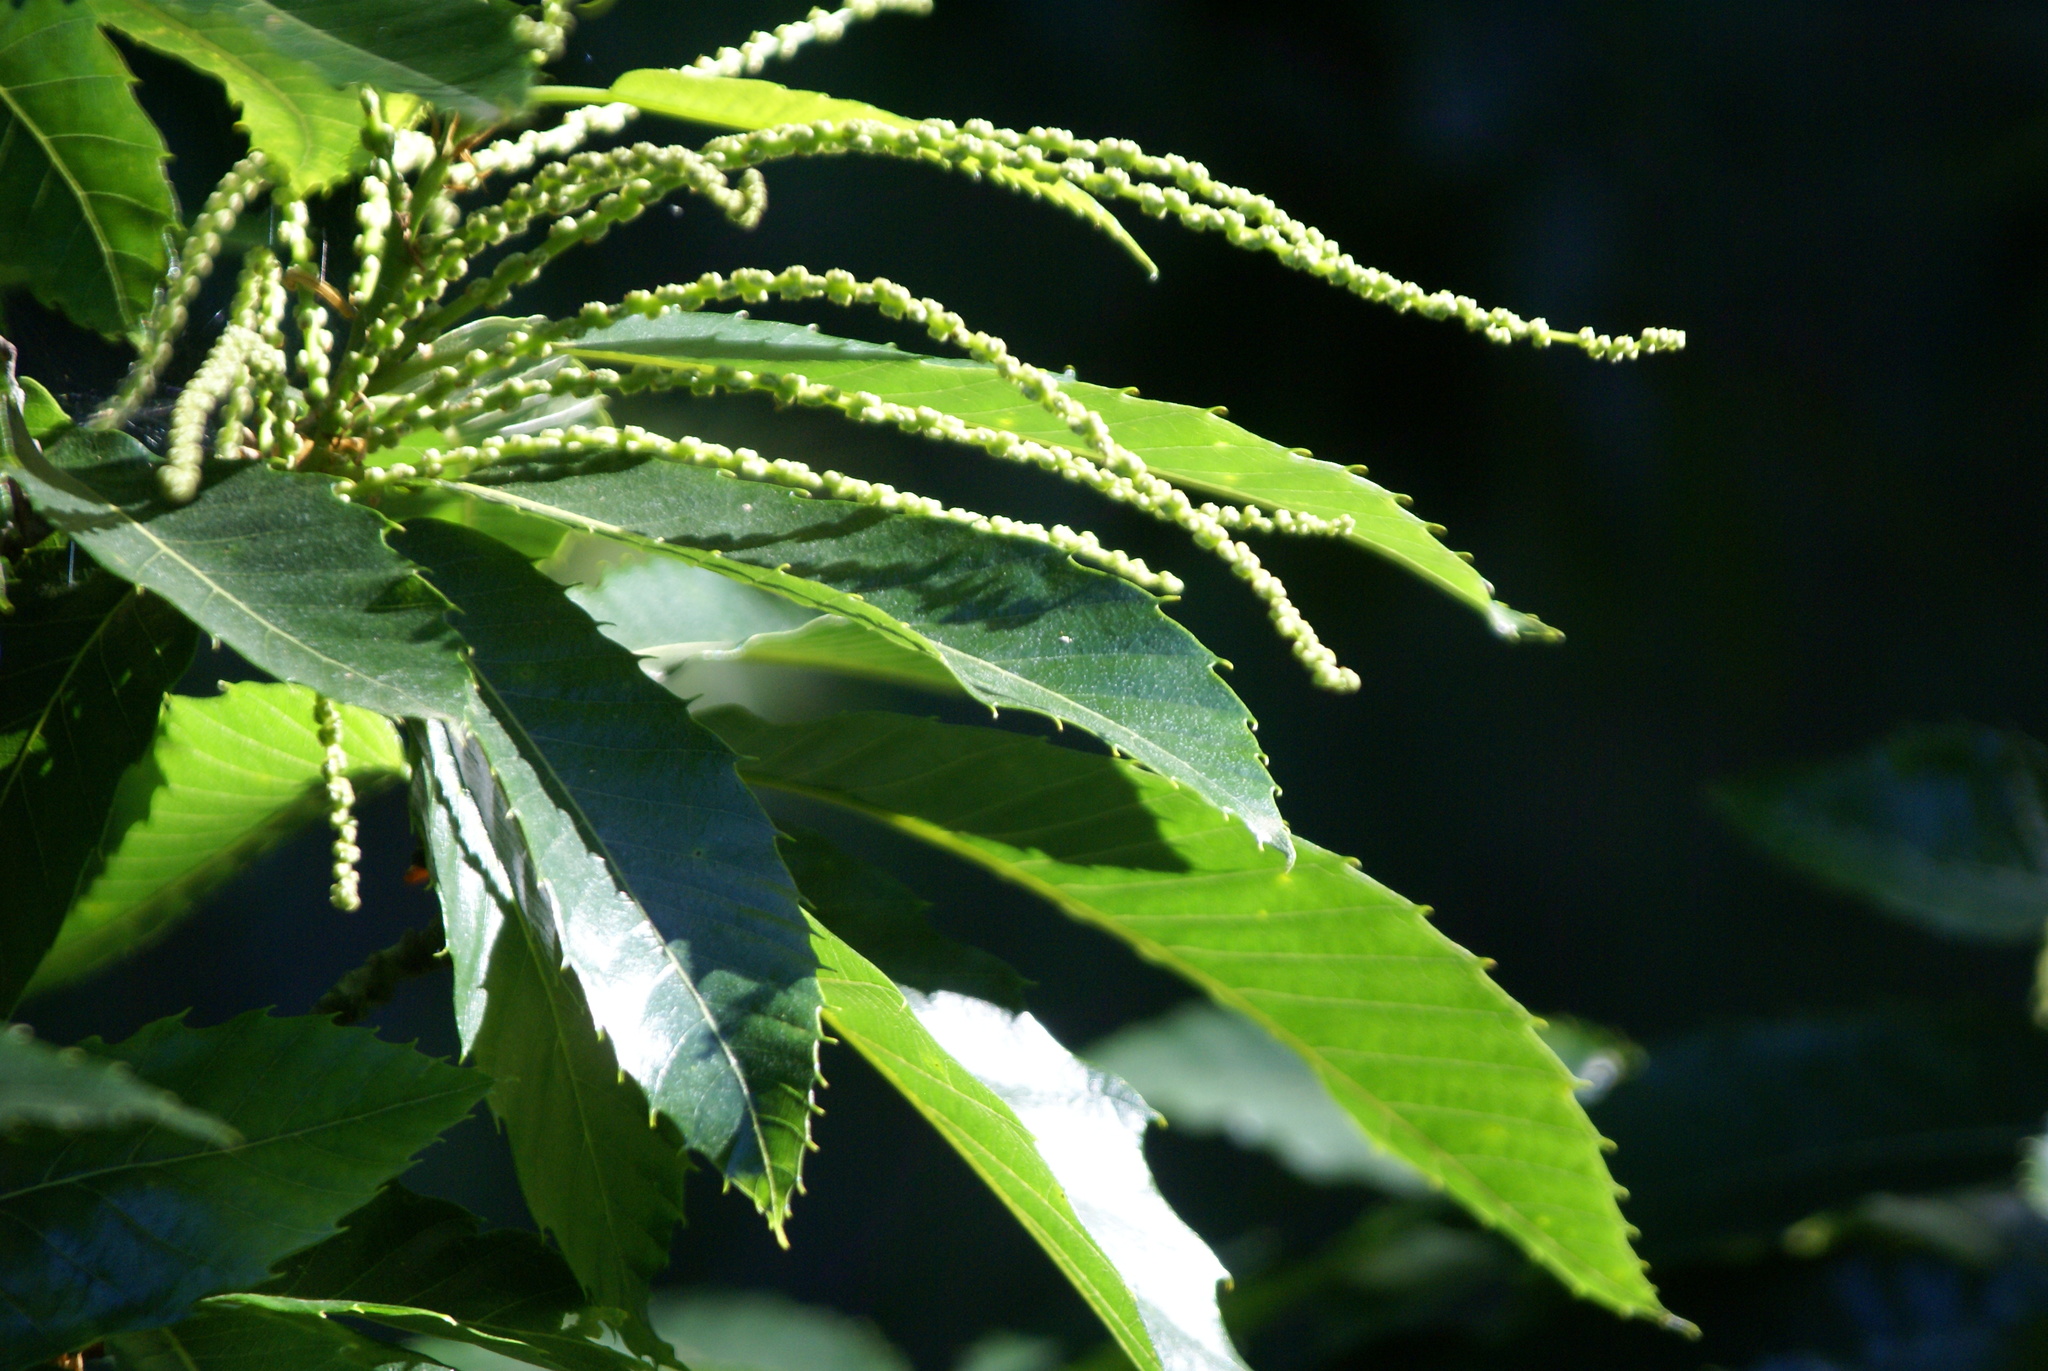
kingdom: Plantae
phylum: Tracheophyta
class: Magnoliopsida
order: Fagales
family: Fagaceae
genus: Castanea
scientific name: Castanea sativa
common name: Sweet chestnut
